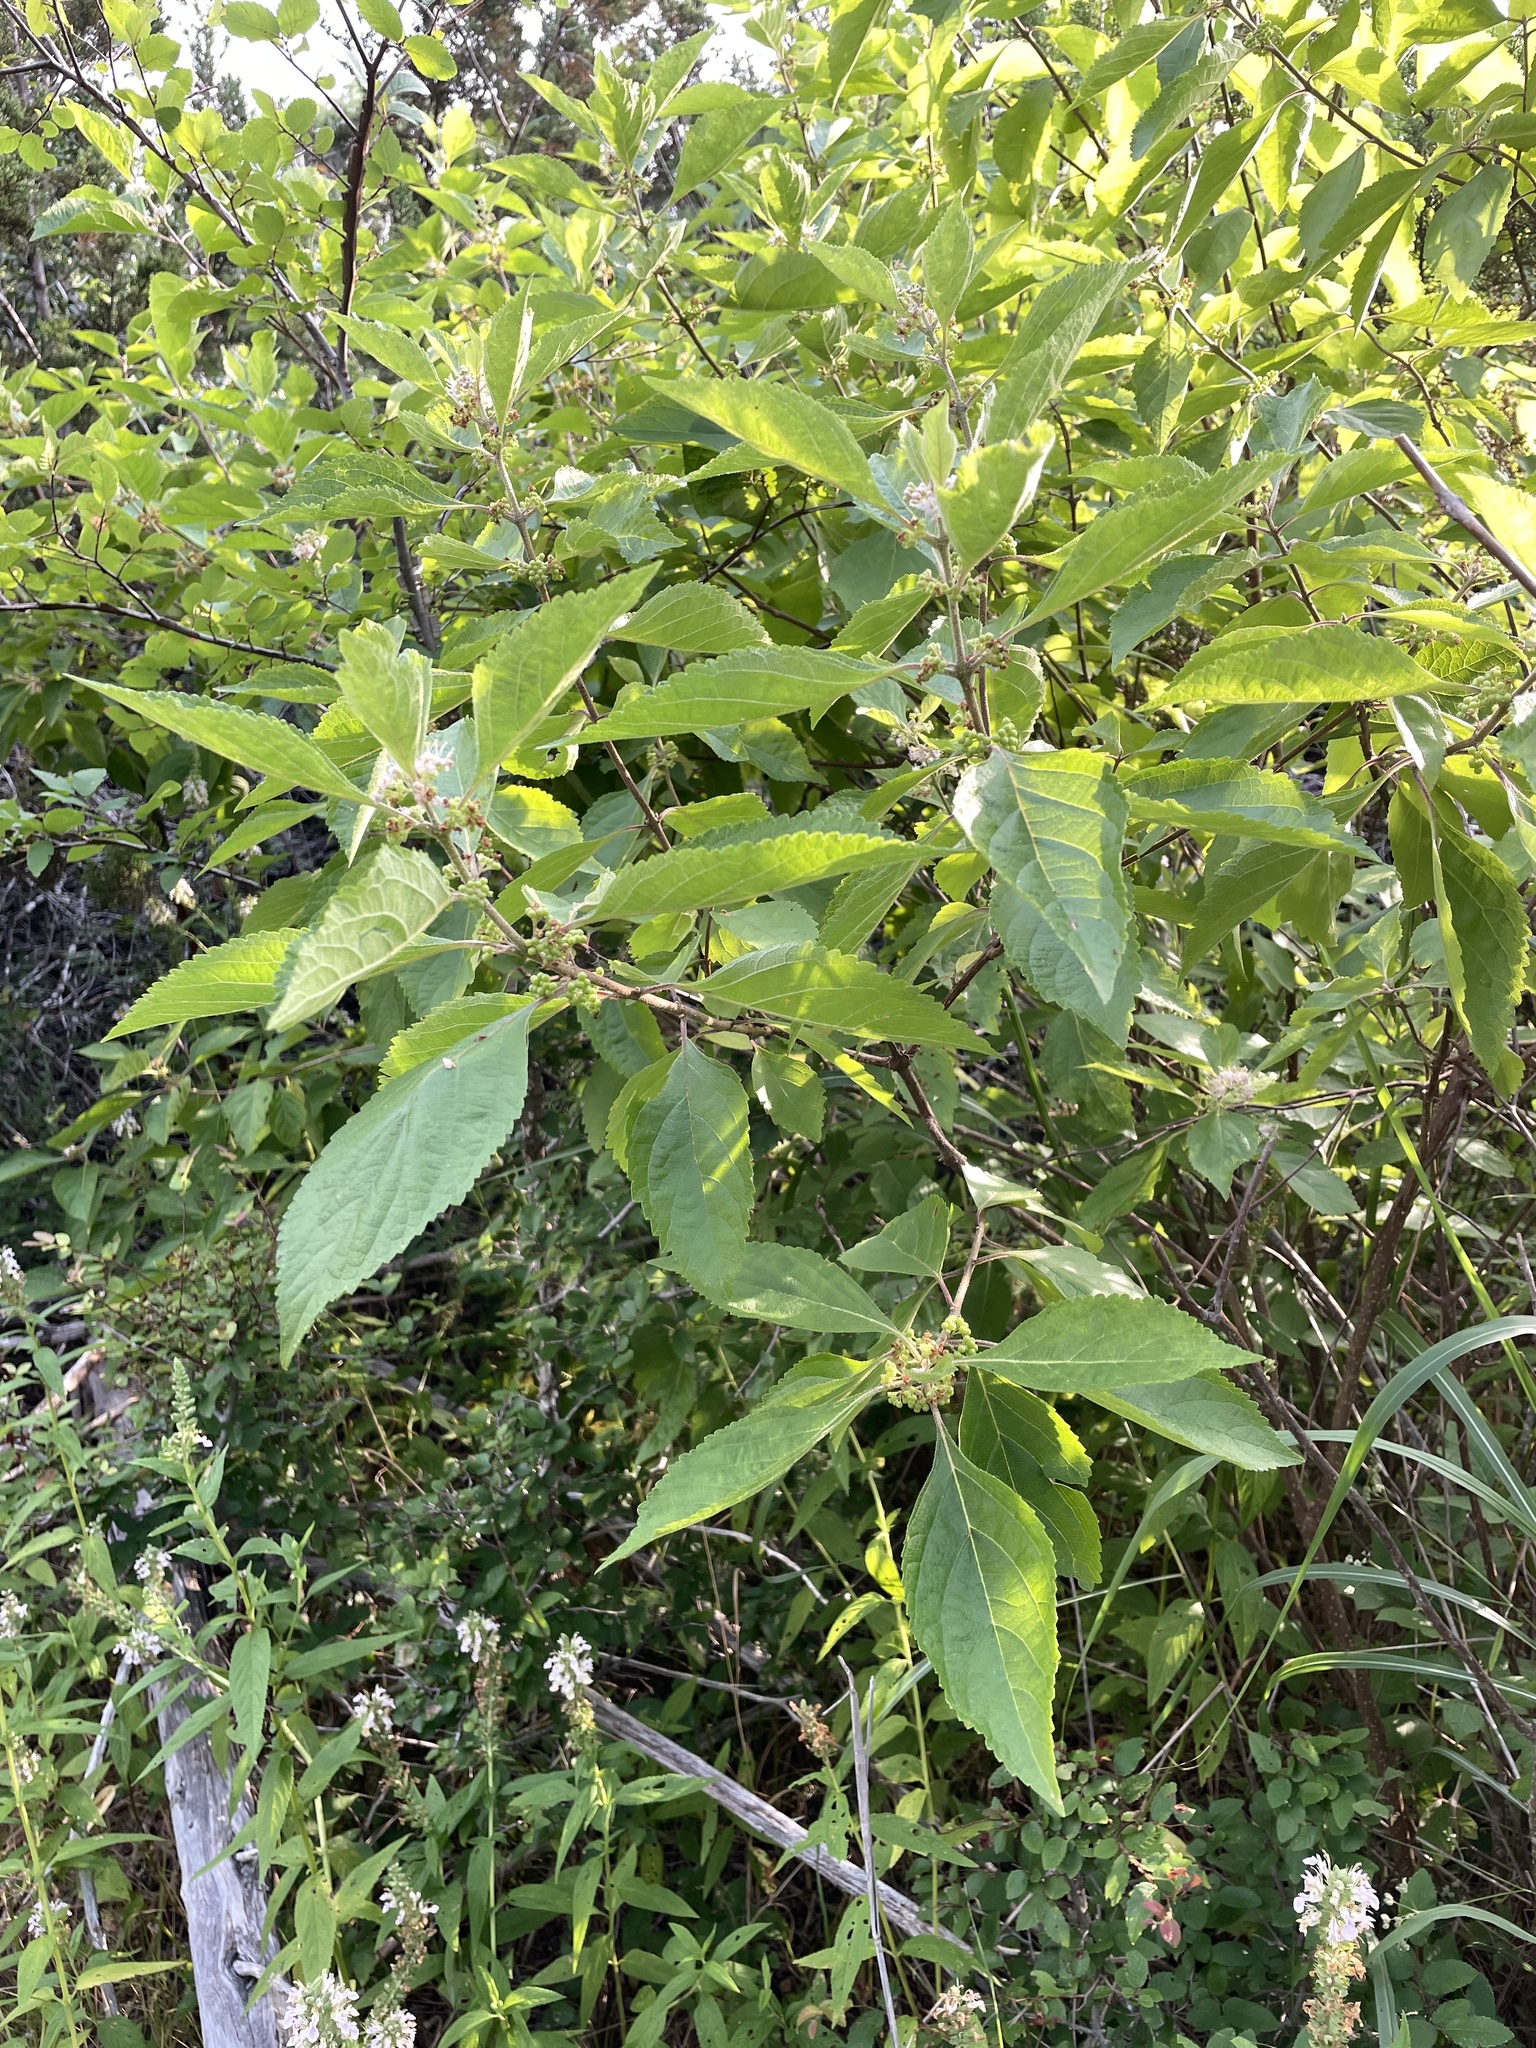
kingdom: Plantae
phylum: Tracheophyta
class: Magnoliopsida
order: Lamiales
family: Lamiaceae
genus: Callicarpa
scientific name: Callicarpa americana
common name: American beautyberry
